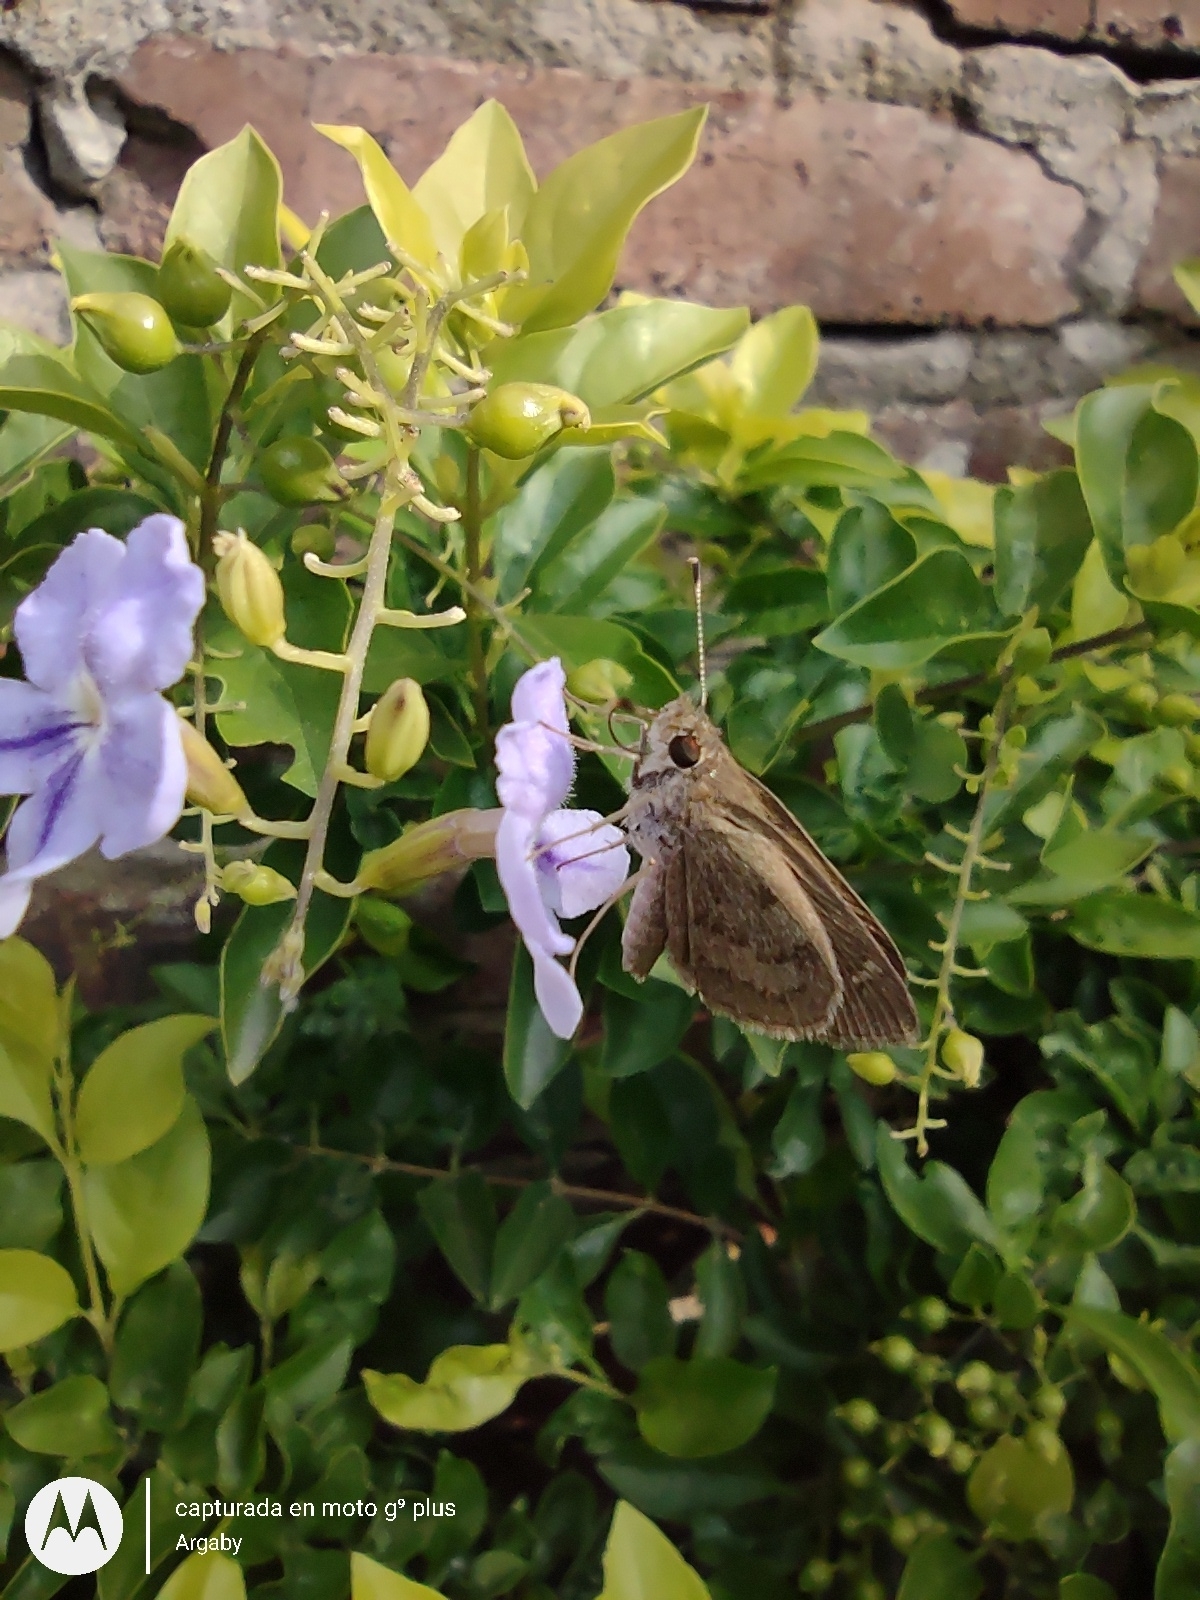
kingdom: Animalia
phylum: Arthropoda
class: Insecta
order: Lepidoptera
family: Hesperiidae
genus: Cymaenes
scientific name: Cymaenes gisca
